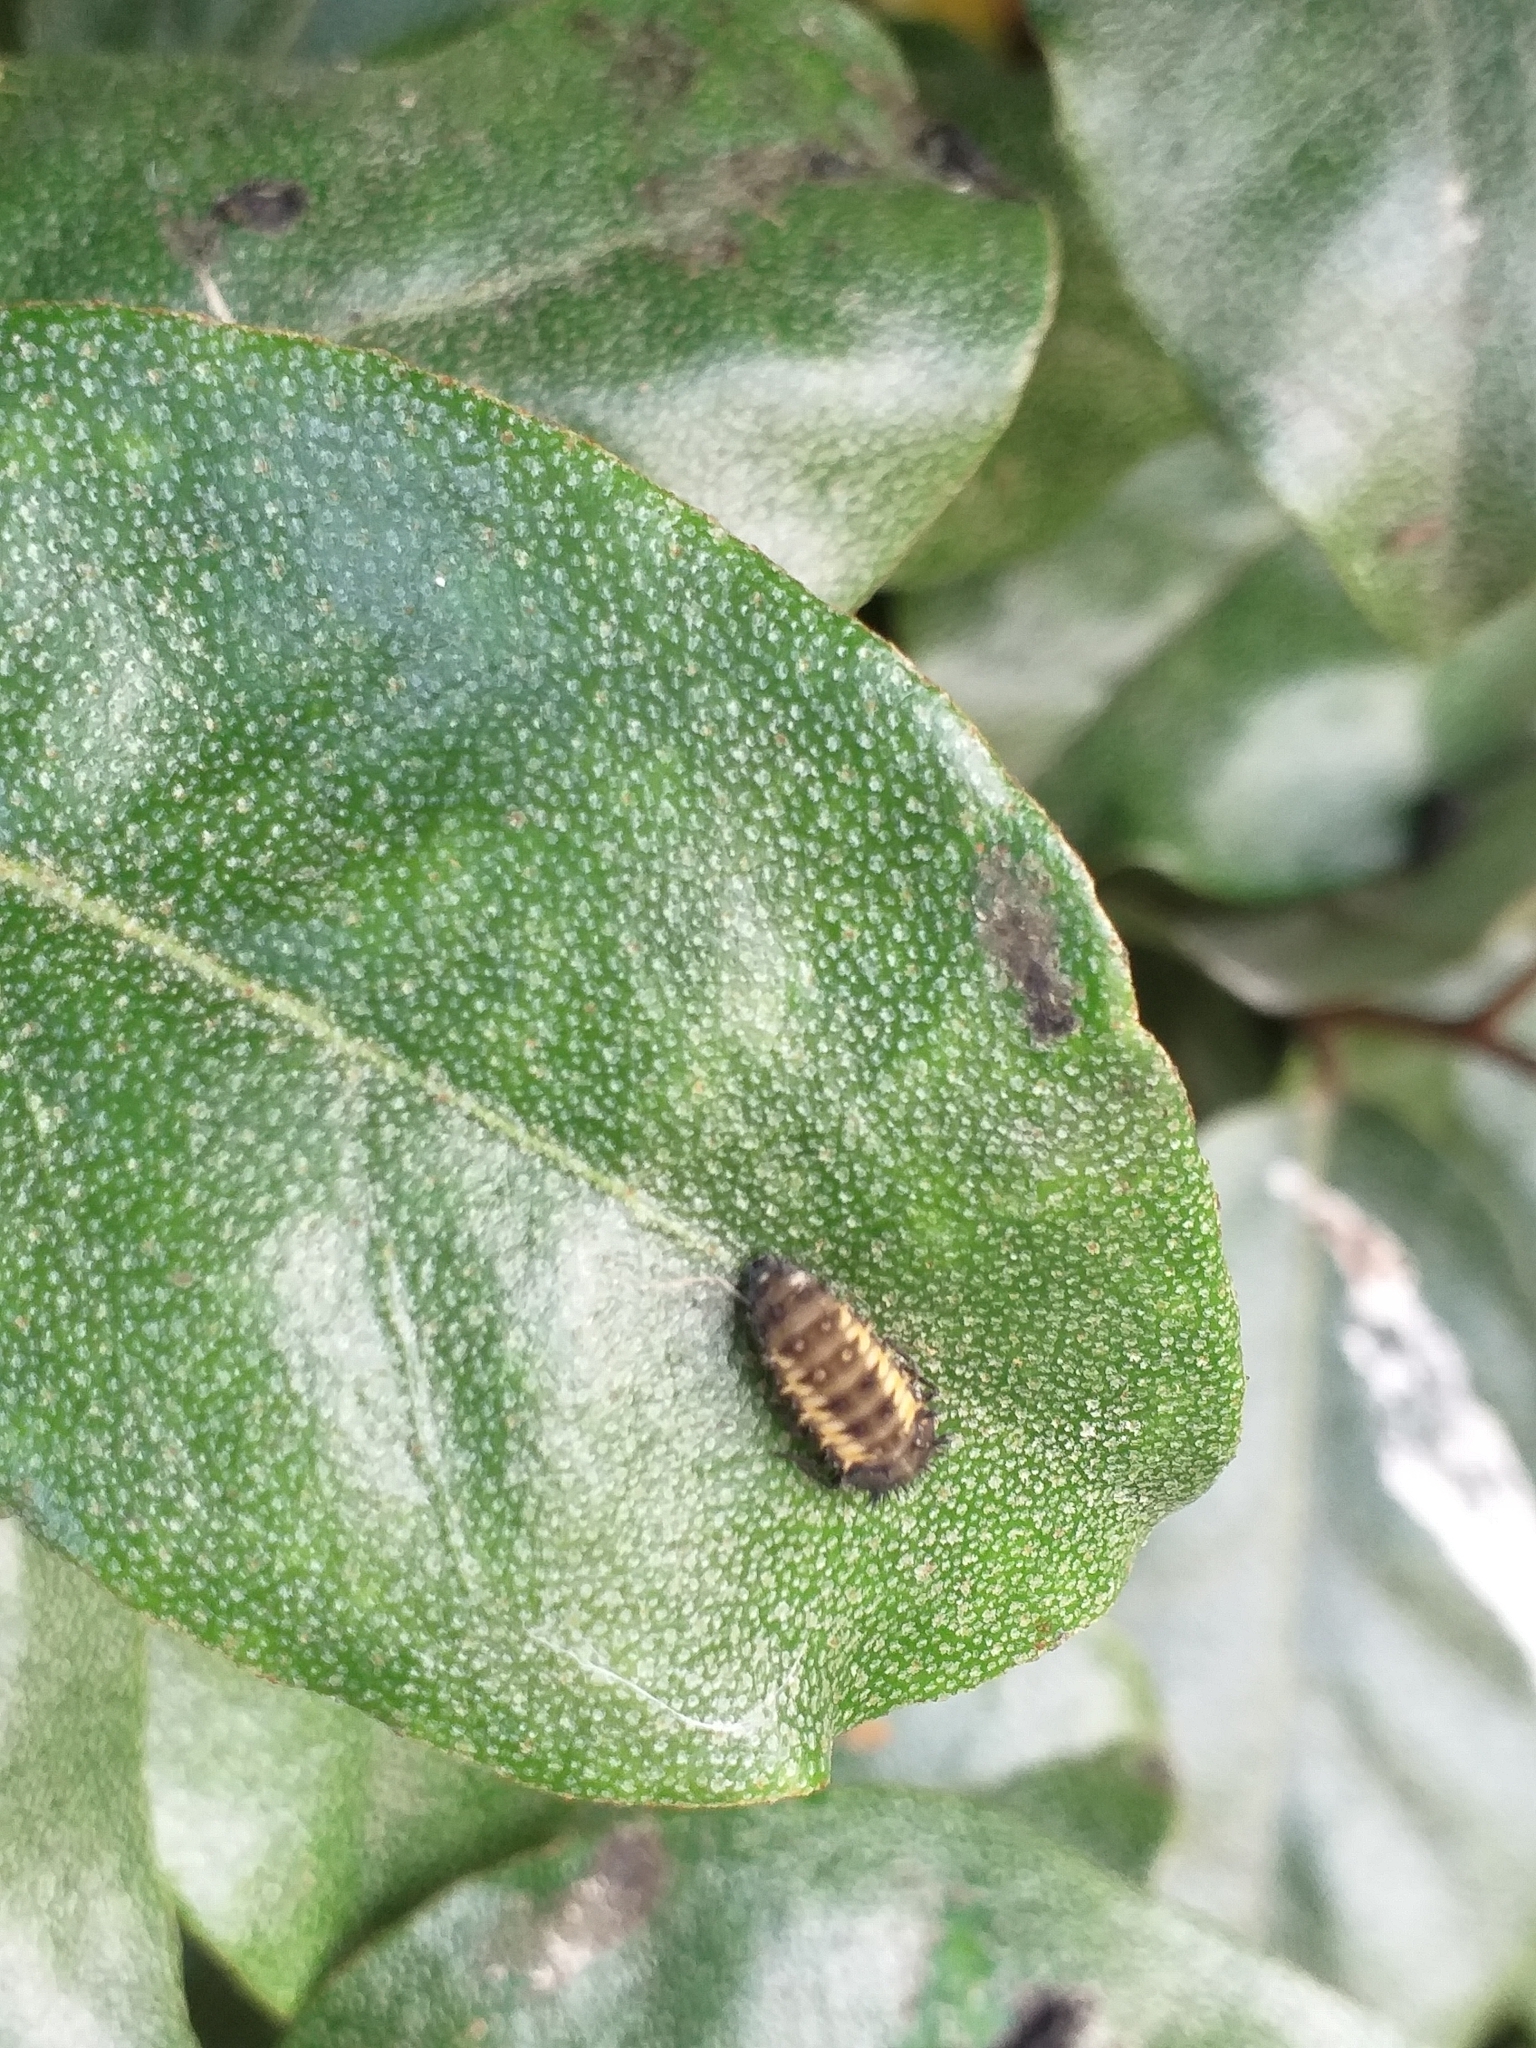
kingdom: Animalia
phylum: Arthropoda
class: Insecta
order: Coleoptera
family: Coccinellidae
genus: Harmonia
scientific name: Harmonia axyridis
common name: Harlequin ladybird
